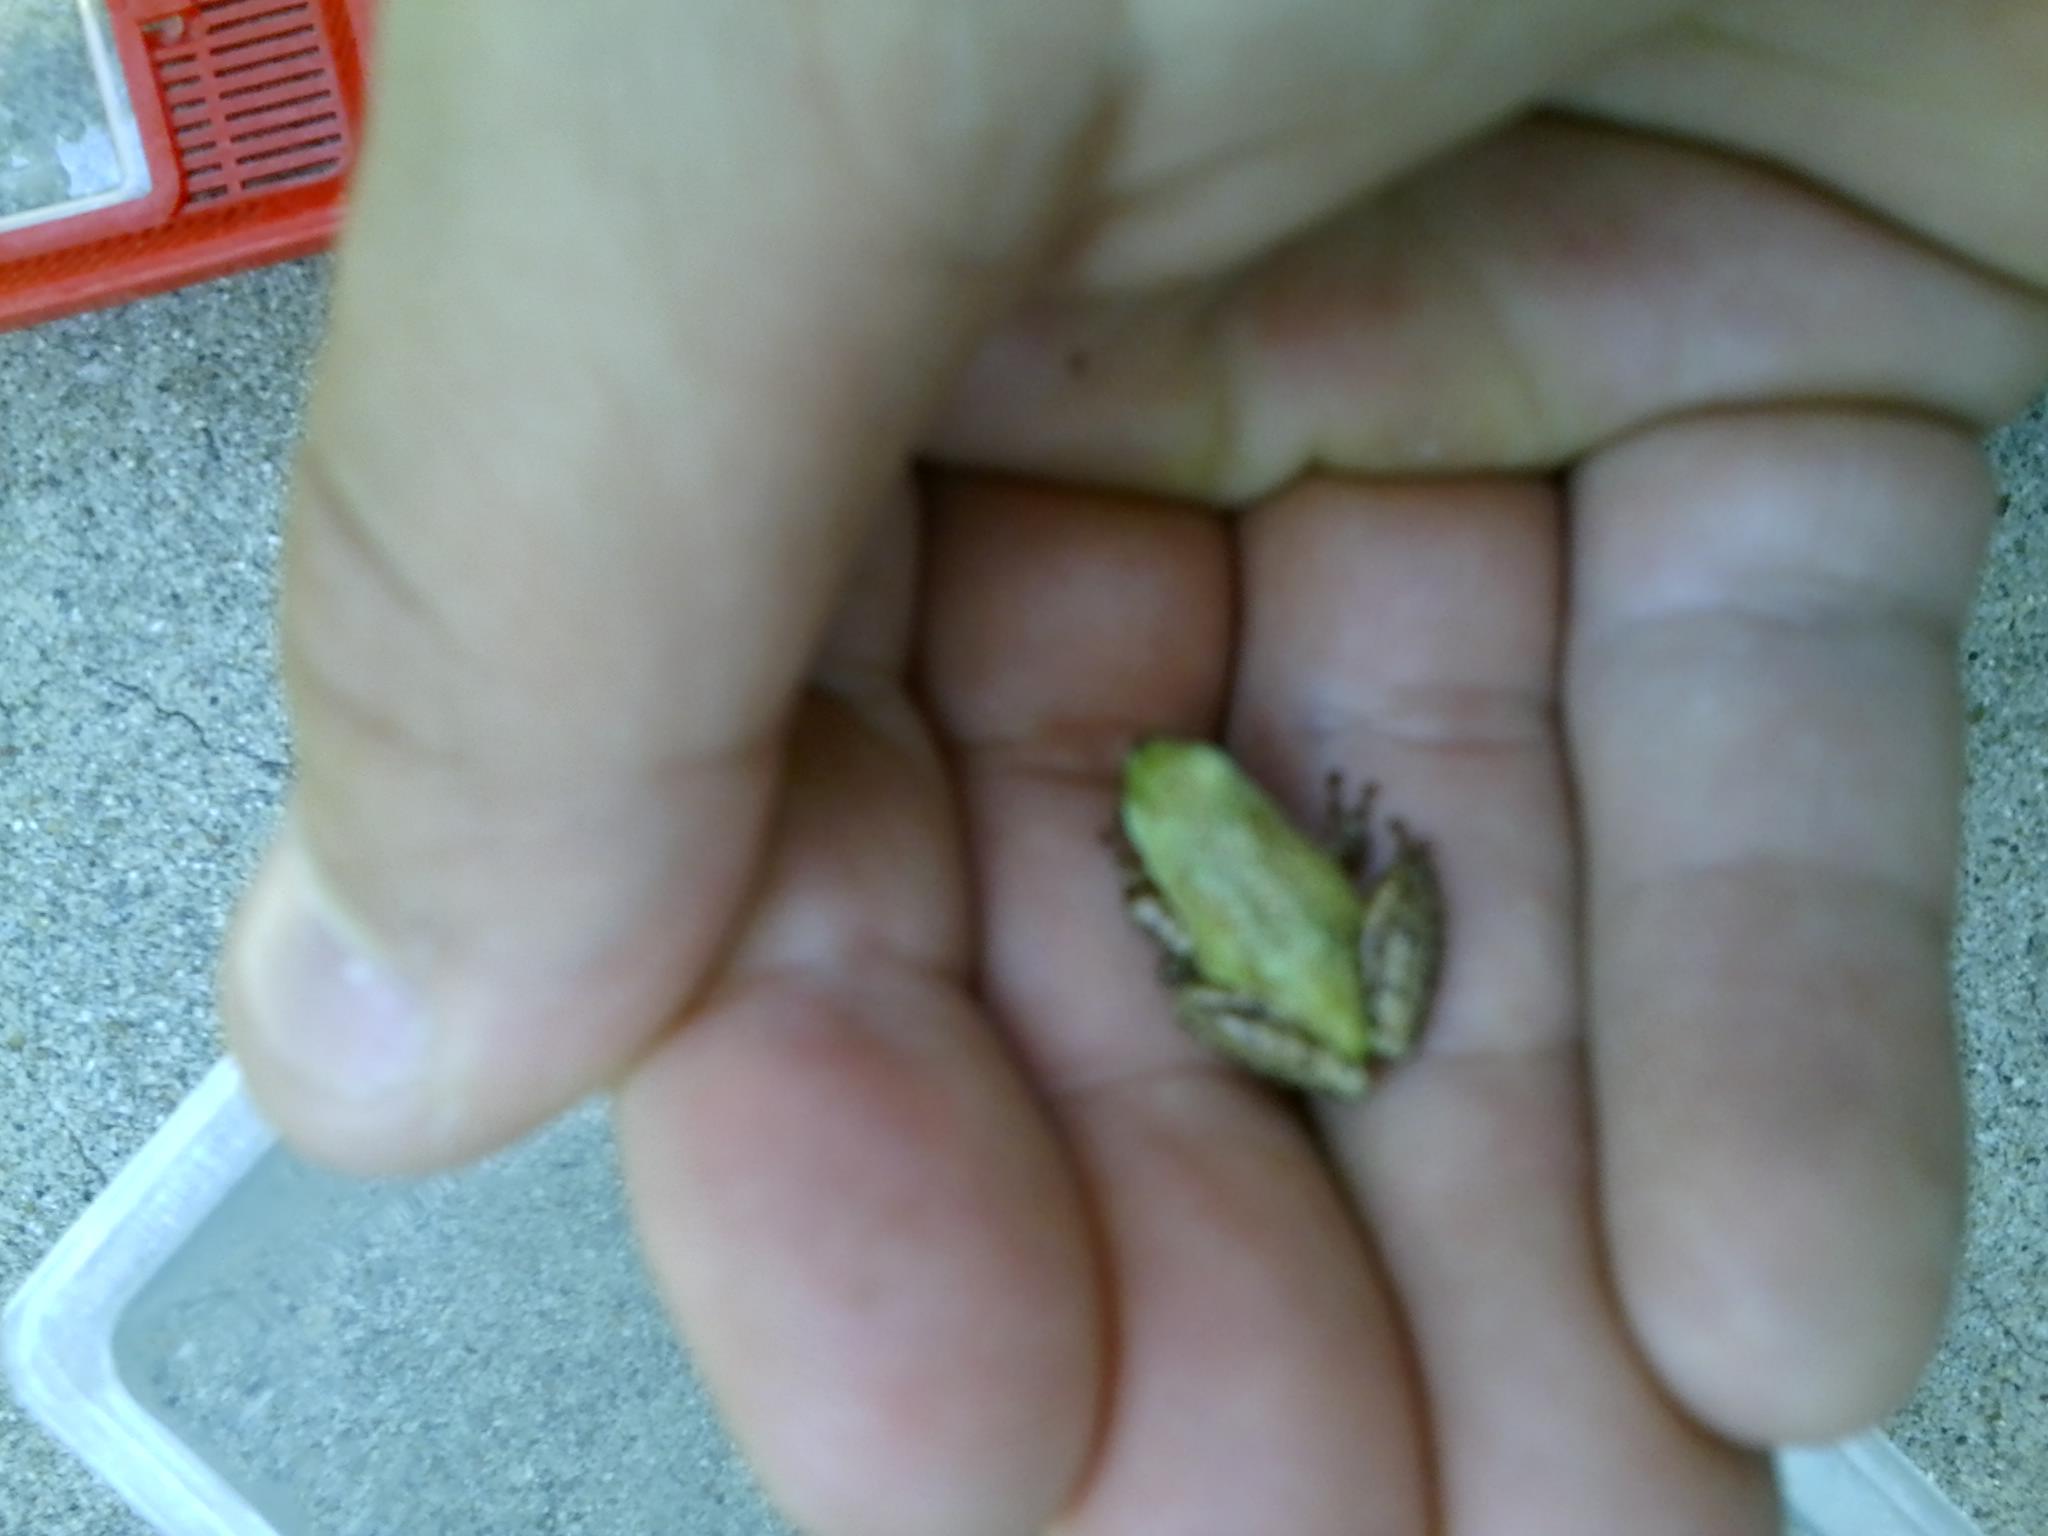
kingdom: Animalia
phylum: Chordata
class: Amphibia
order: Anura
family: Hylidae
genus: Pseudacris
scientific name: Pseudacris regilla
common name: Pacific chorus frog
